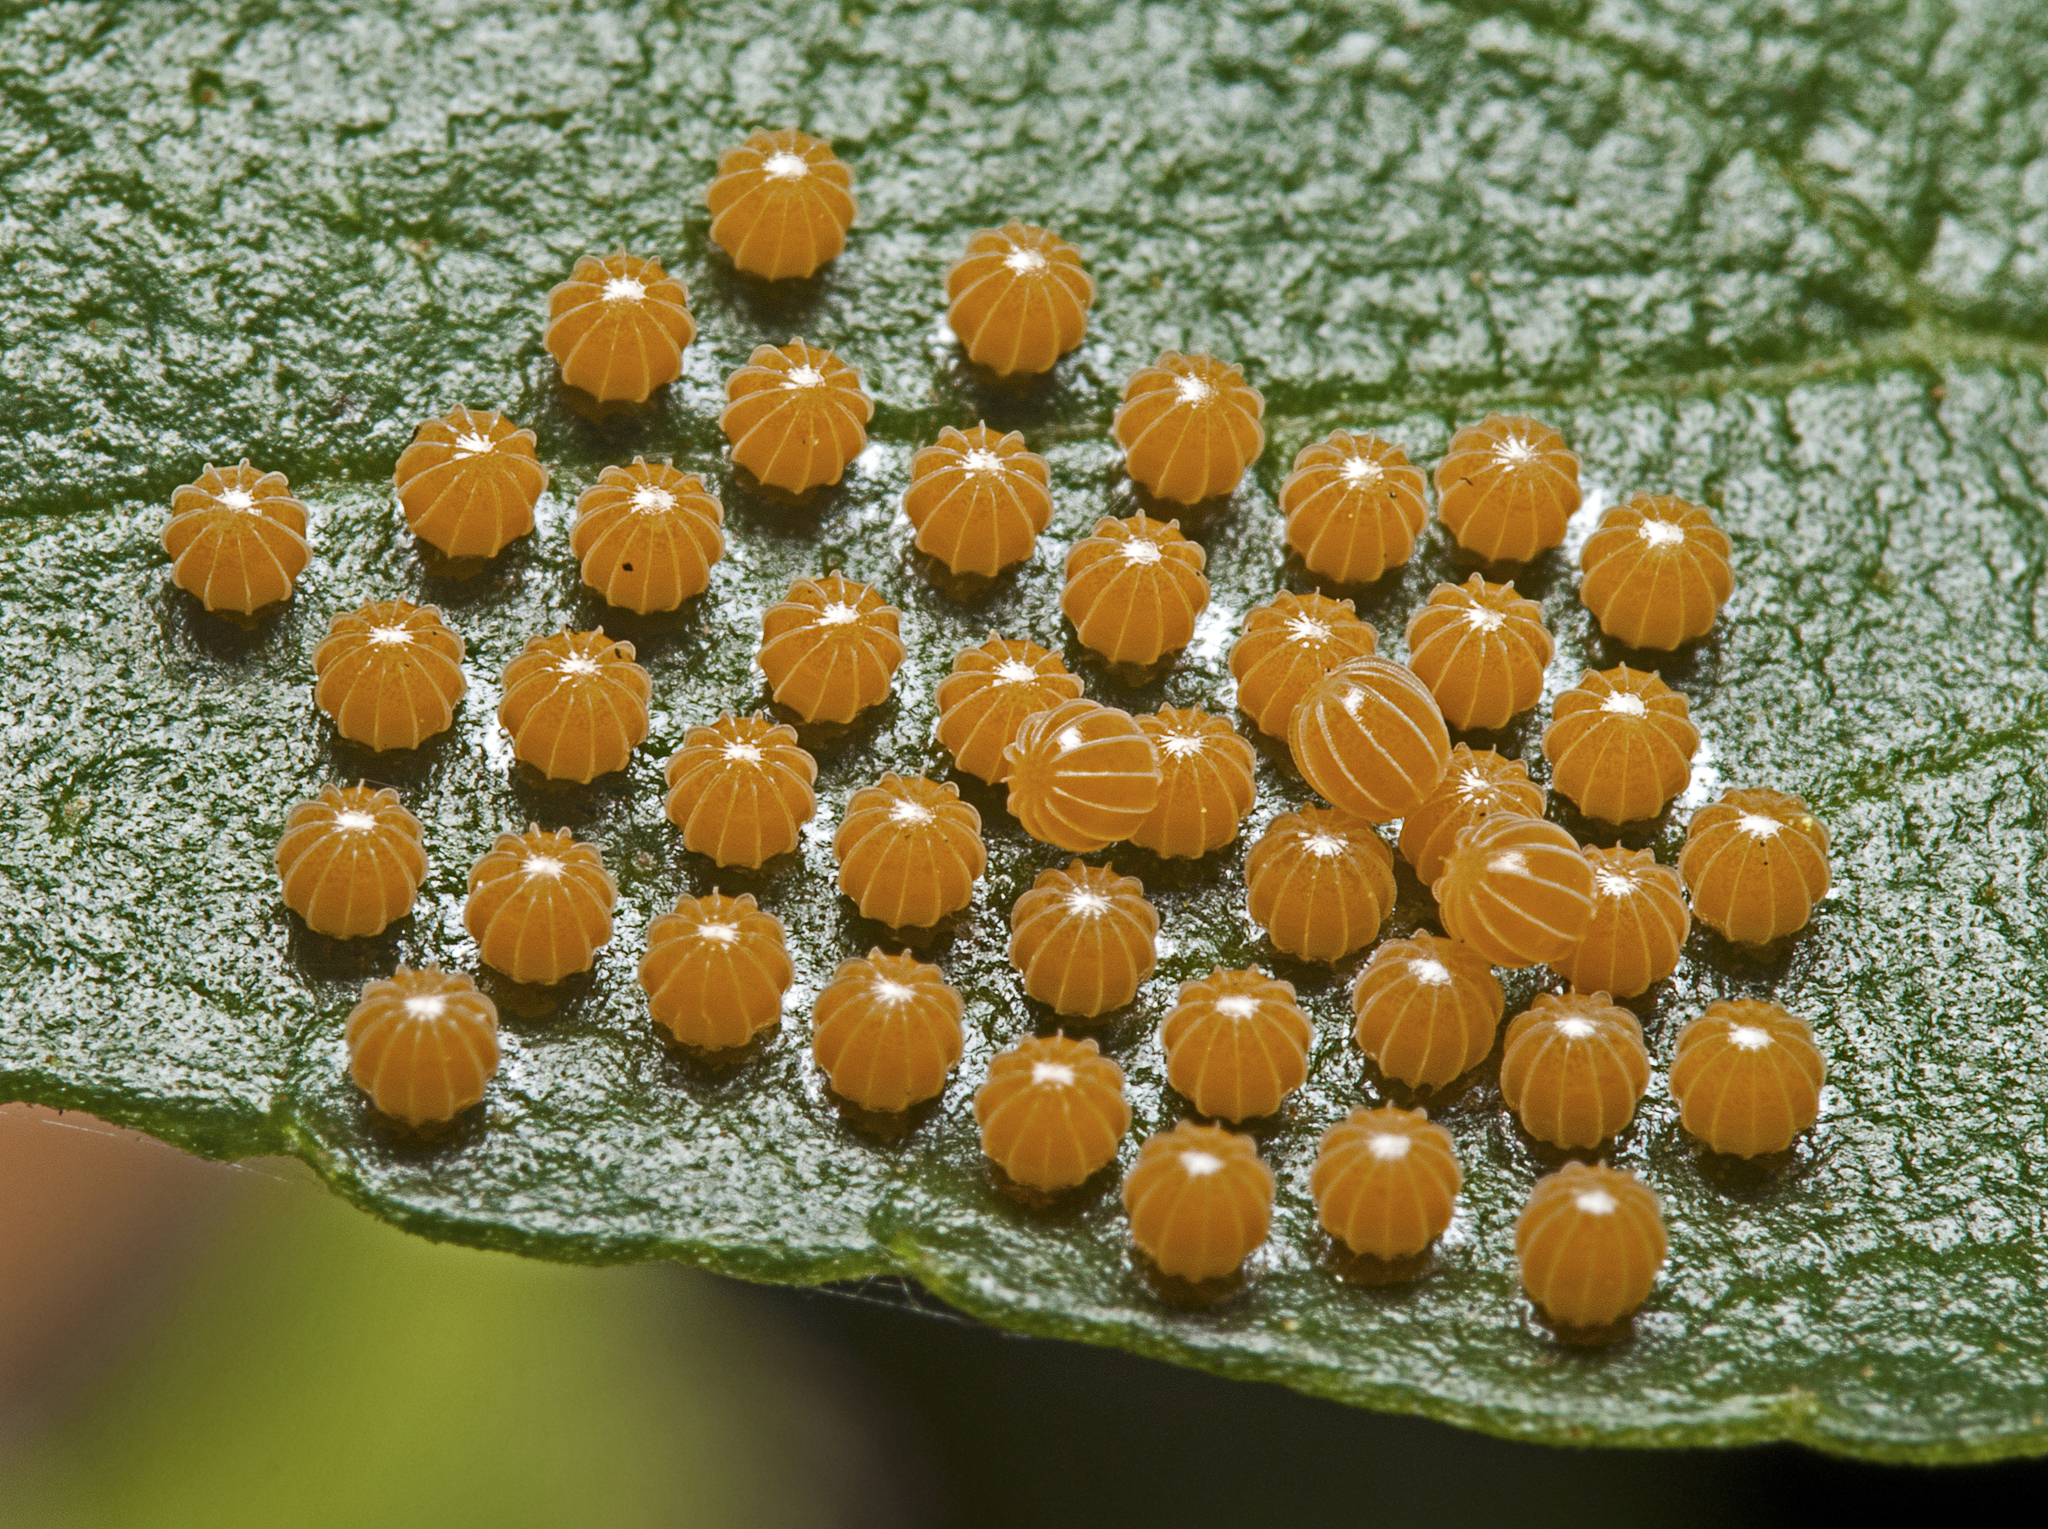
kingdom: Animalia
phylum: Arthropoda
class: Insecta
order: Lepidoptera
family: Nymphalidae
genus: Mynes
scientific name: Mynes geoffroyi
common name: Jezebel nymph
